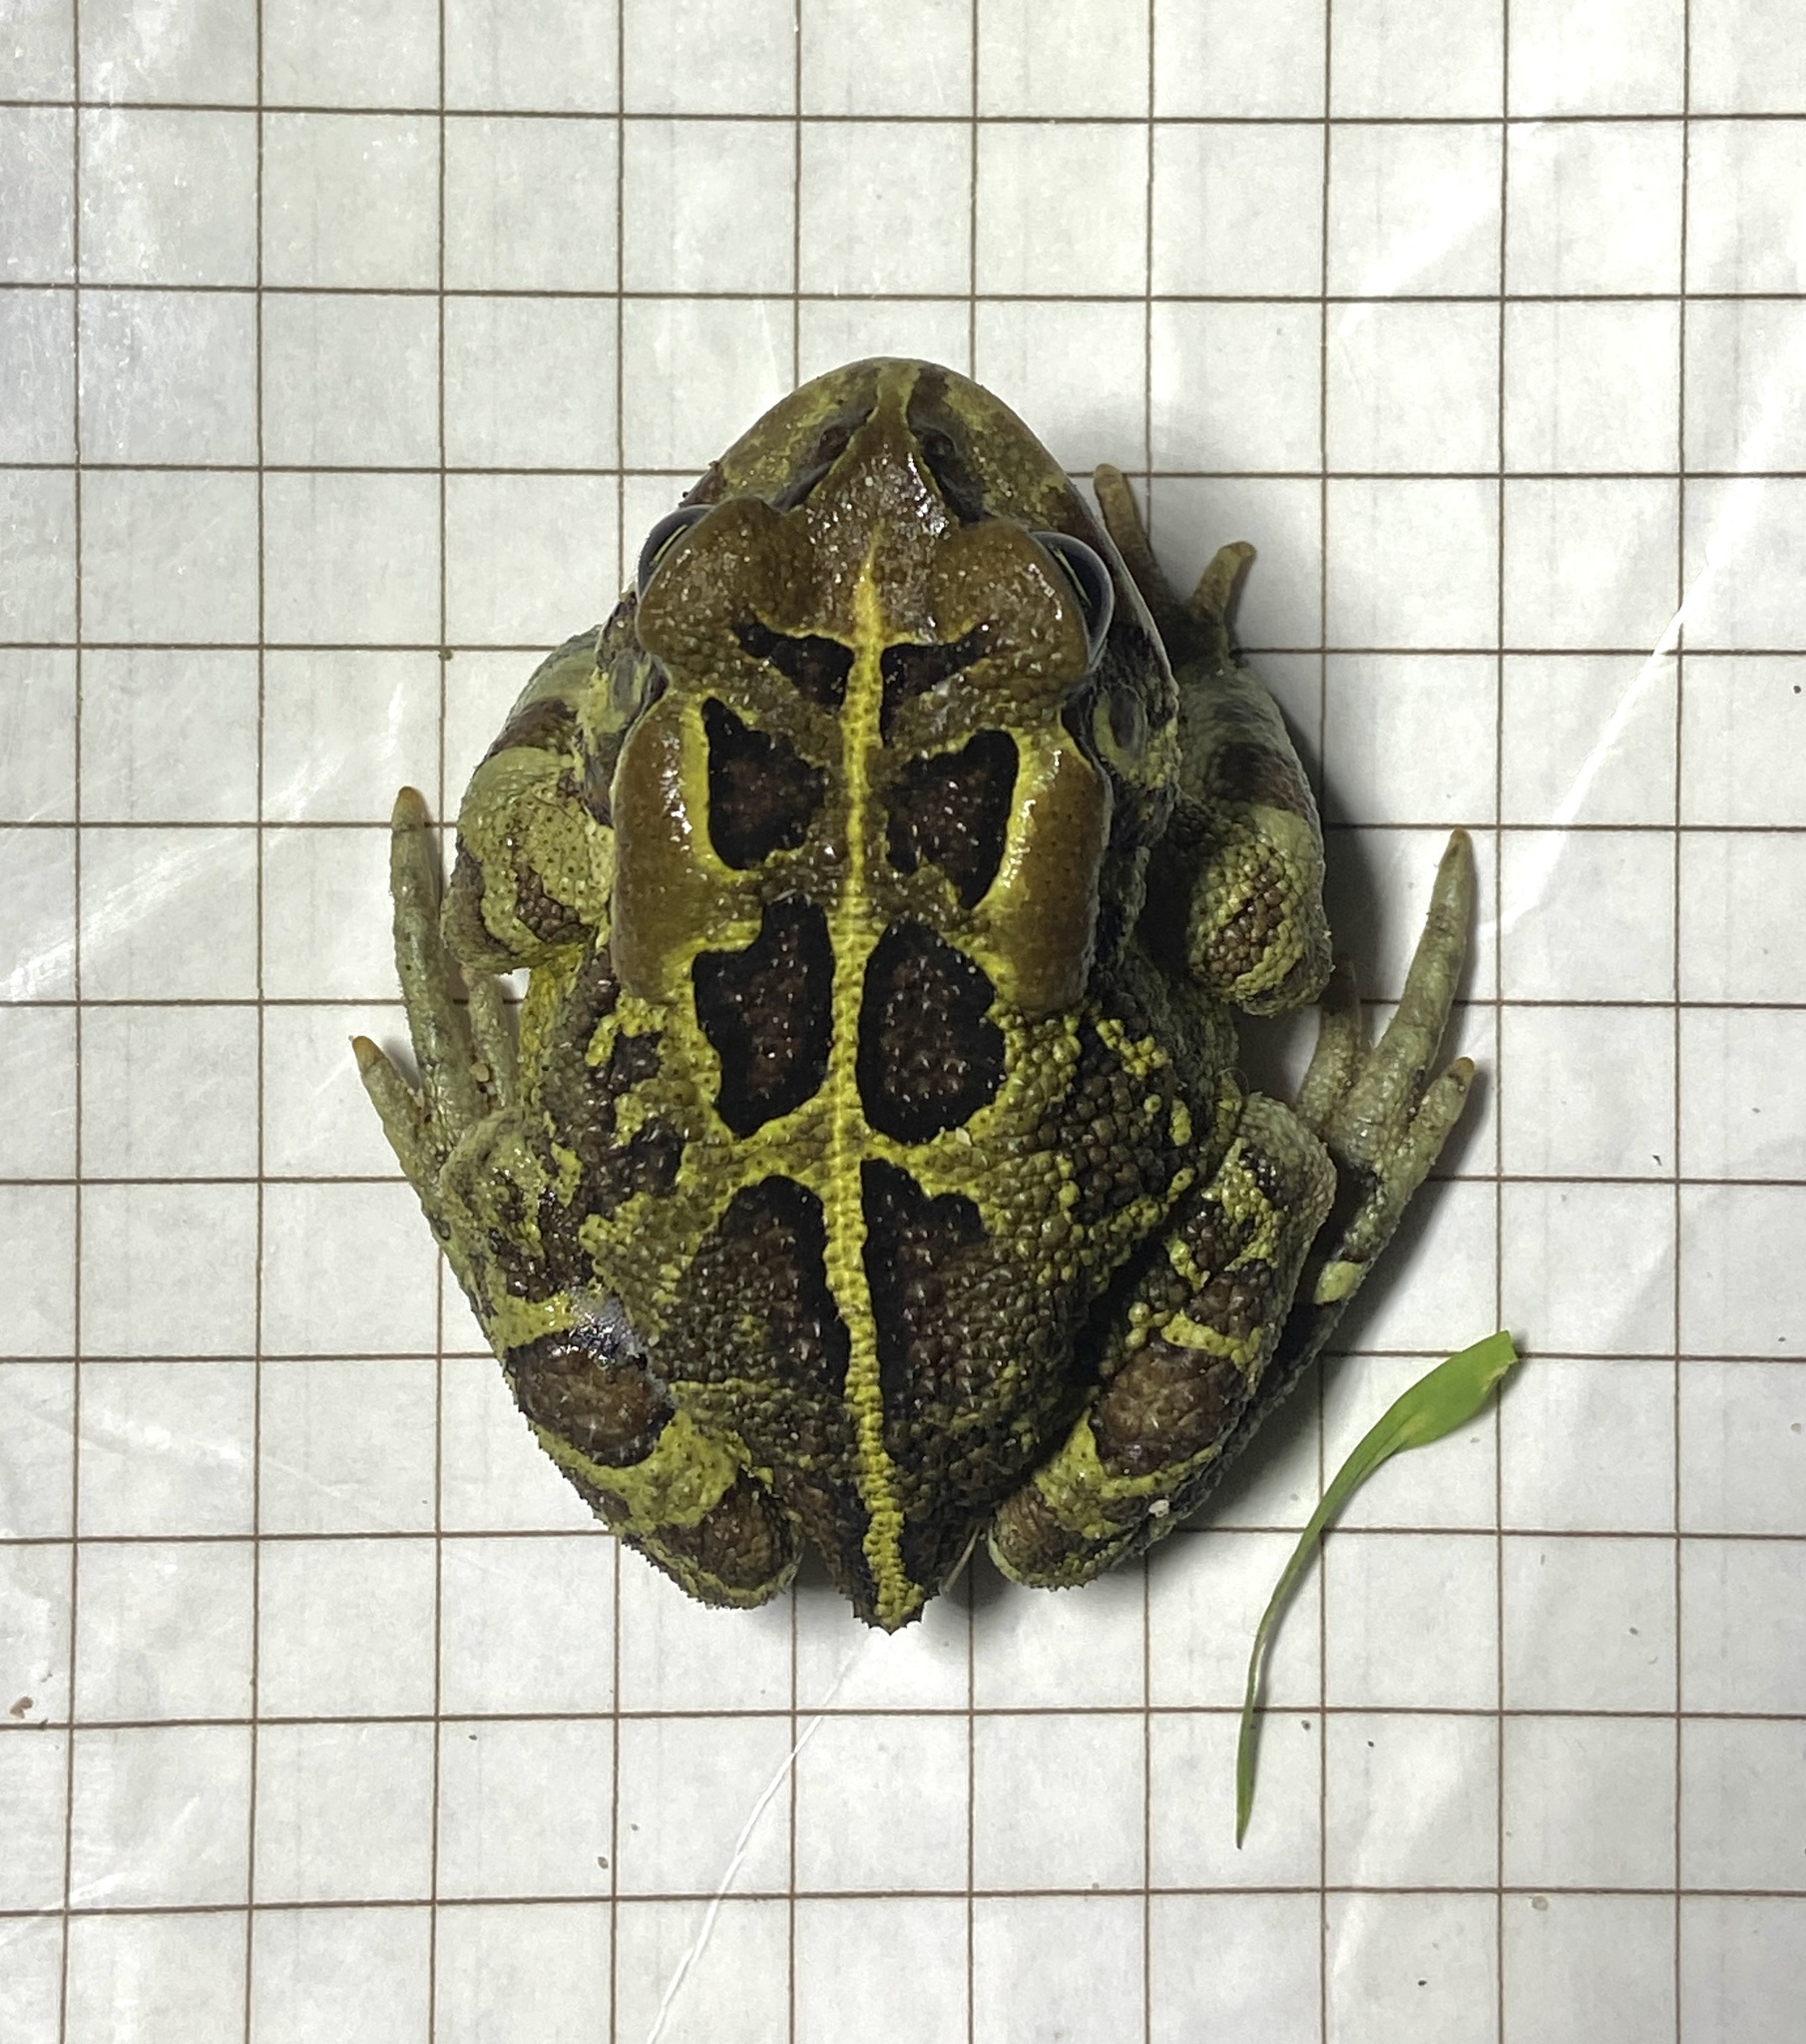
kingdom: Animalia
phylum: Chordata
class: Amphibia
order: Anura
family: Bufonidae
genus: Sclerophrys
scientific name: Sclerophrys pantherina
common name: Panther toad
